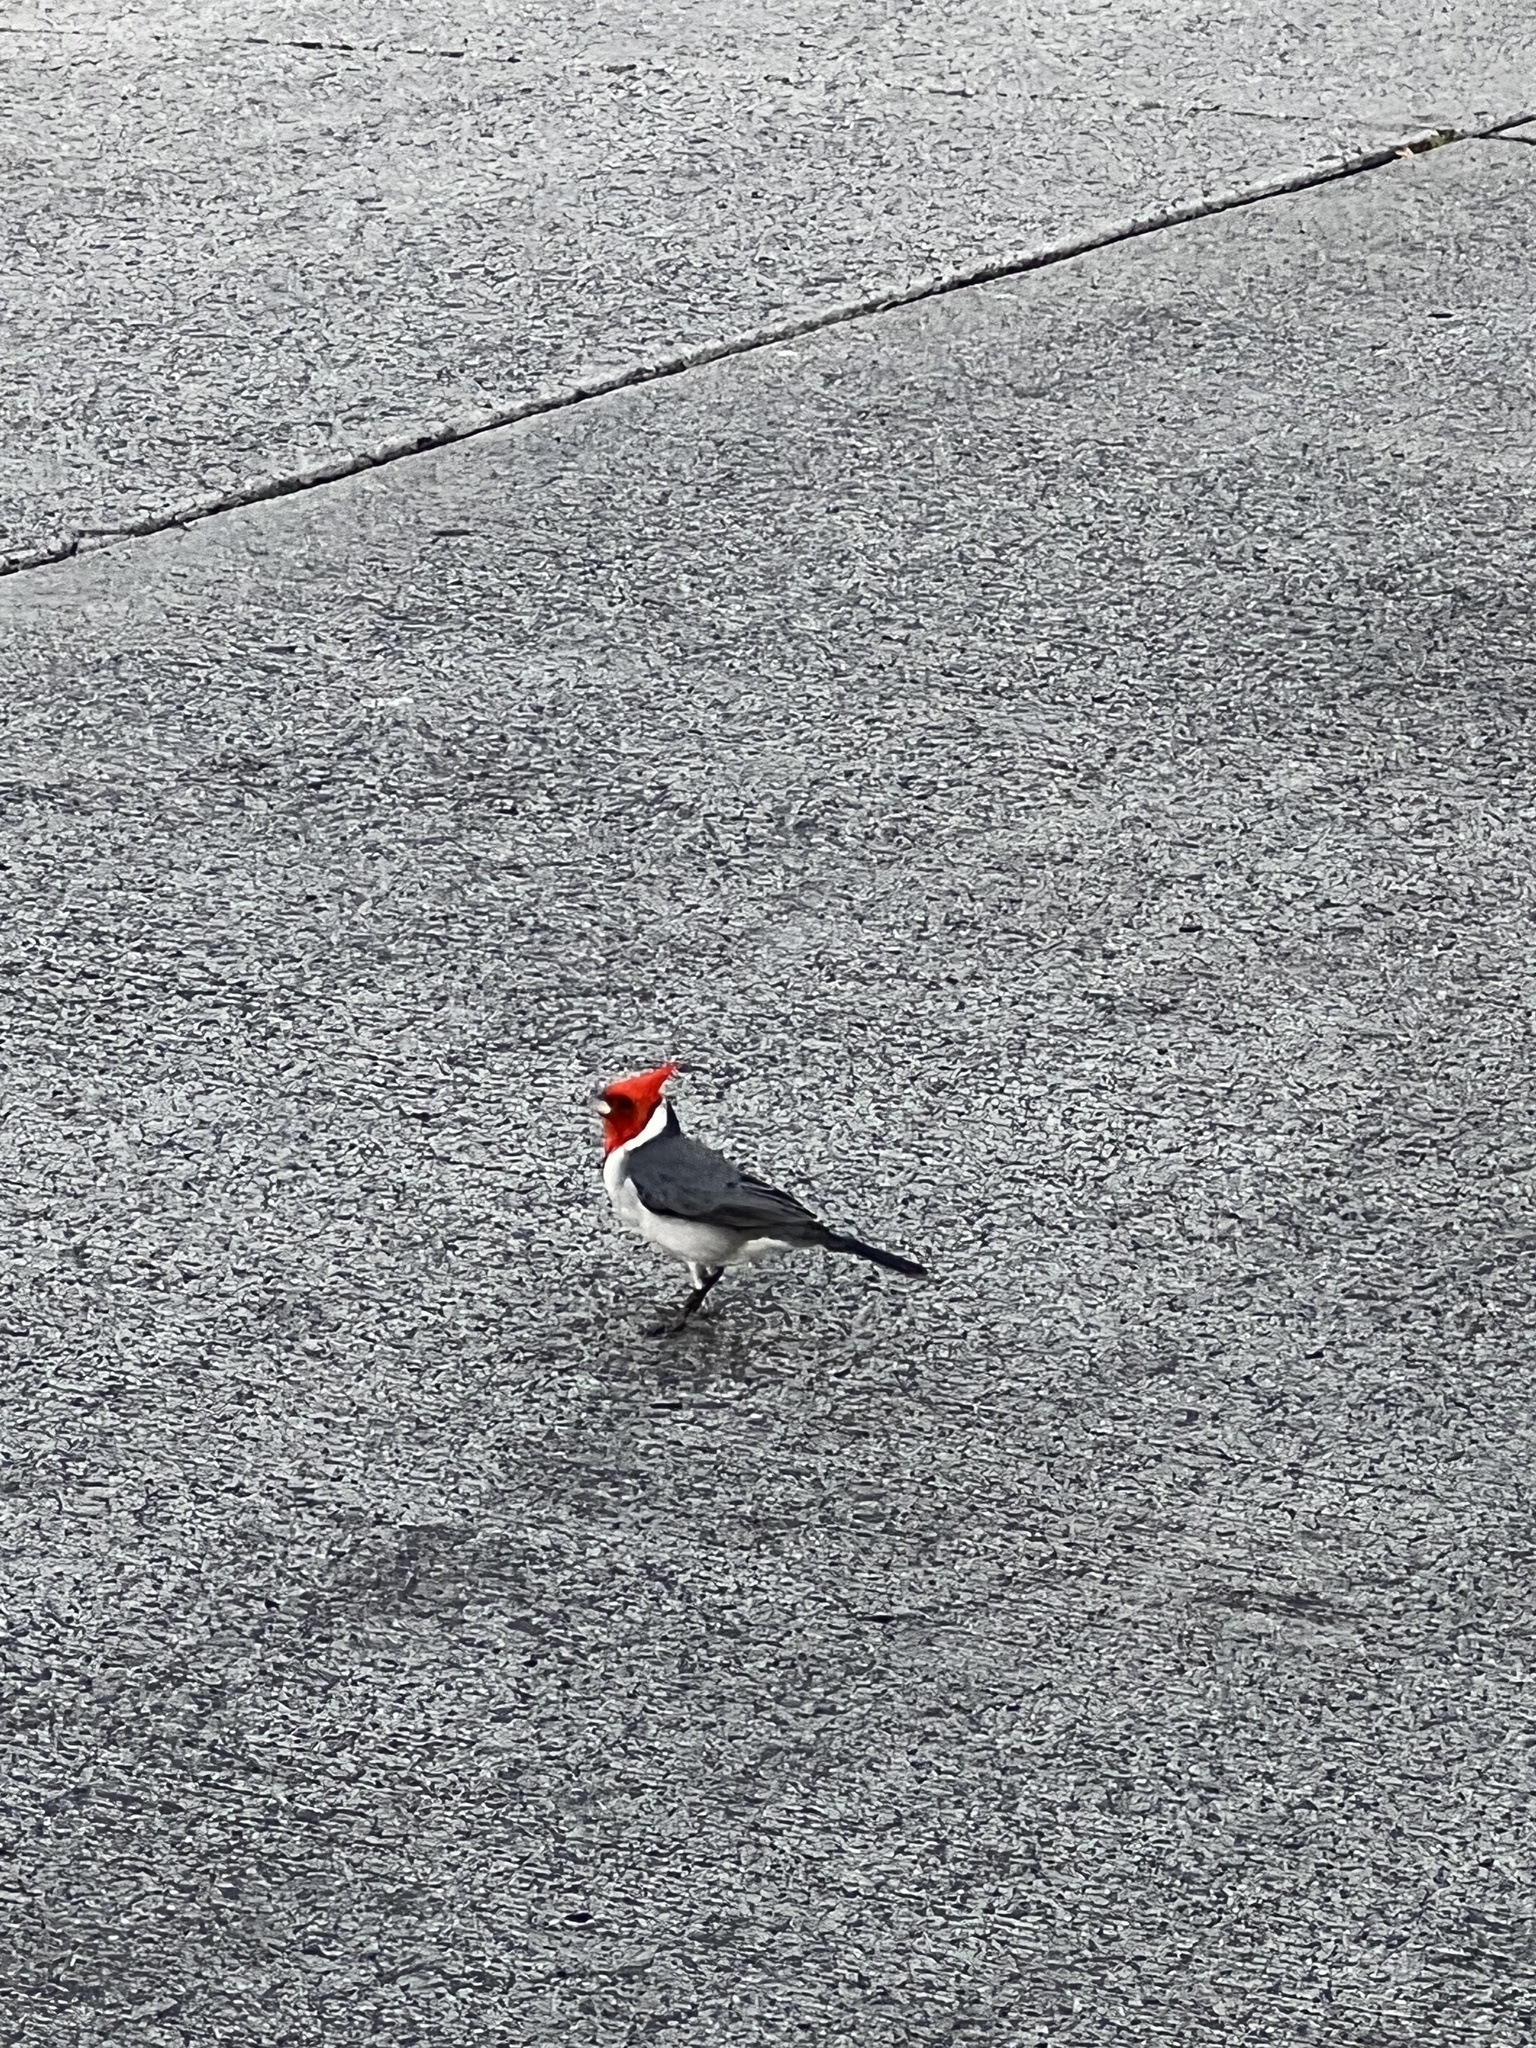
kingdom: Animalia
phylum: Chordata
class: Aves
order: Passeriformes
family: Thraupidae
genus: Paroaria
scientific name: Paroaria coronata
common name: Red-crested cardinal
